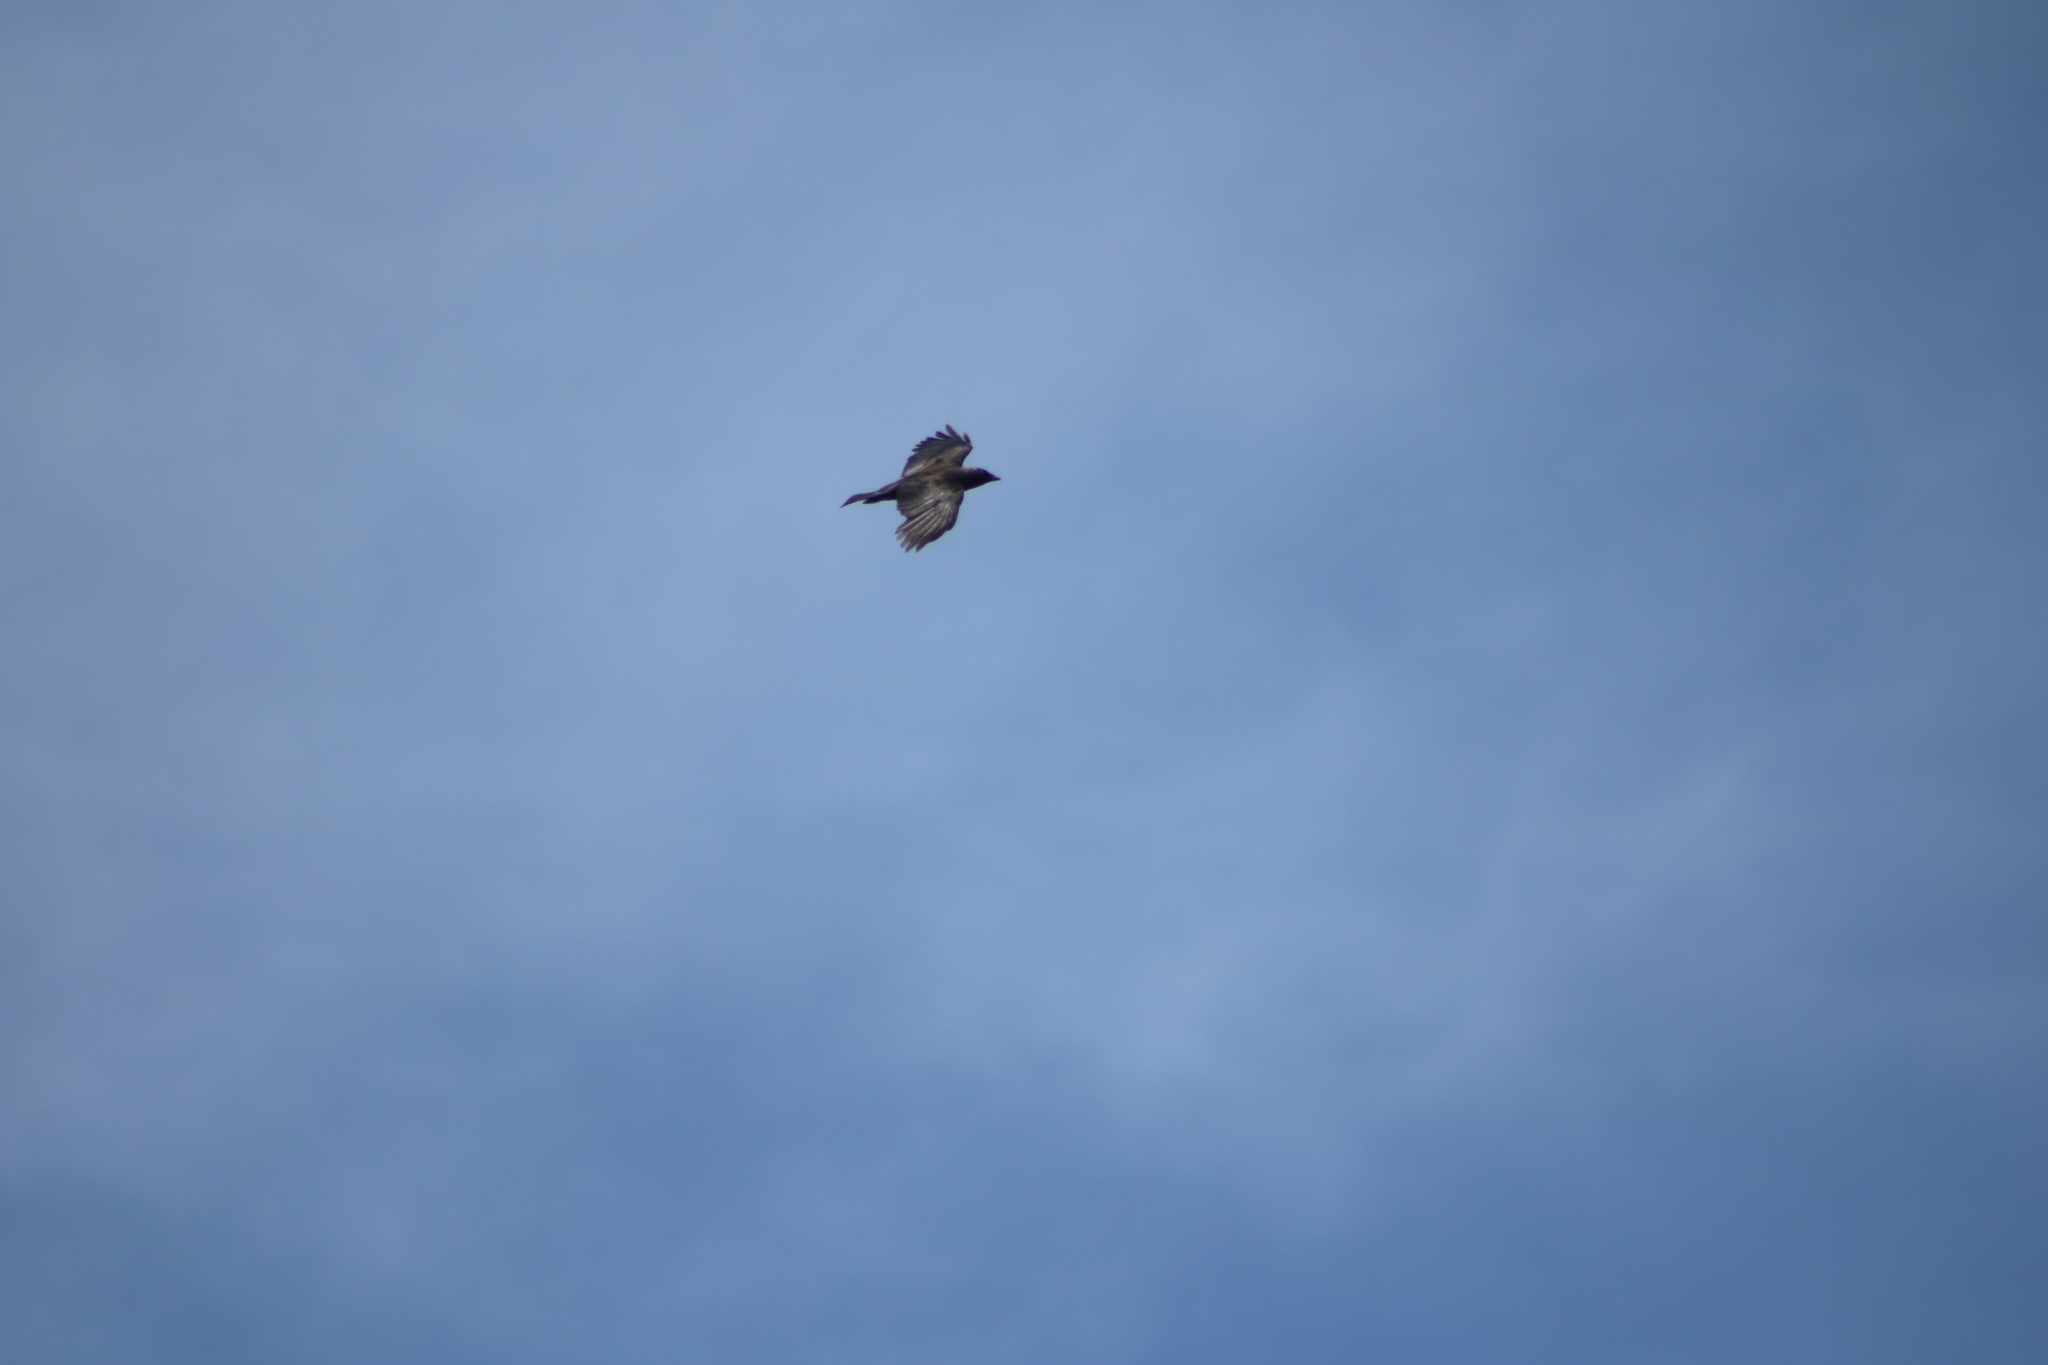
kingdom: Animalia
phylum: Chordata
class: Aves
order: Passeriformes
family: Corvidae
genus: Coloeus
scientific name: Coloeus monedula
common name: Western jackdaw
